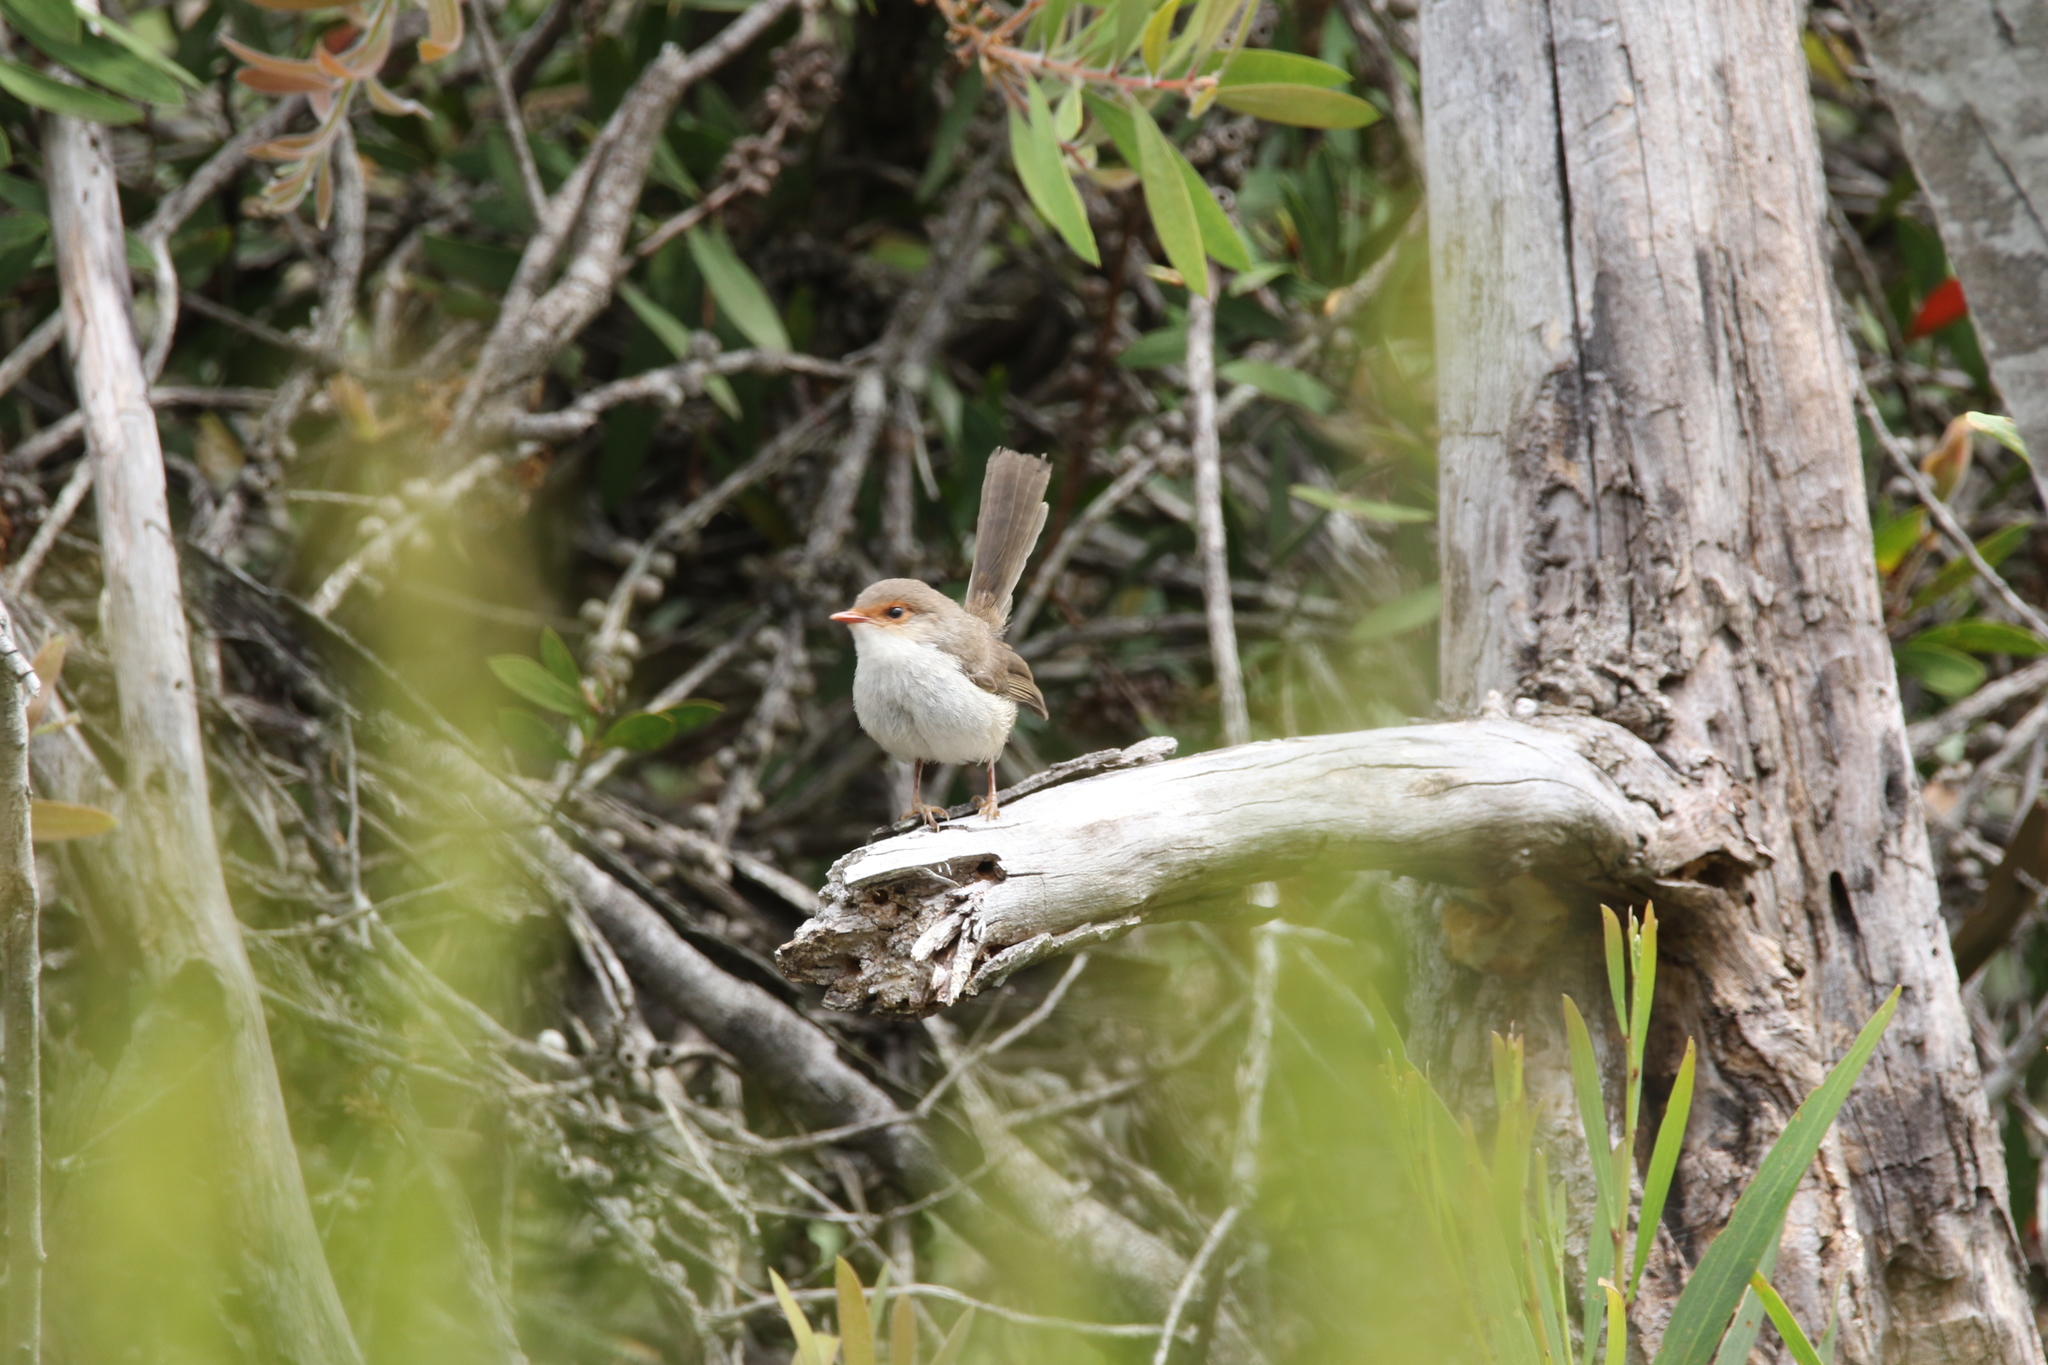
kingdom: Animalia
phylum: Chordata
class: Aves
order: Passeriformes
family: Maluridae
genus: Malurus
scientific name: Malurus cyaneus
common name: Superb fairywren
